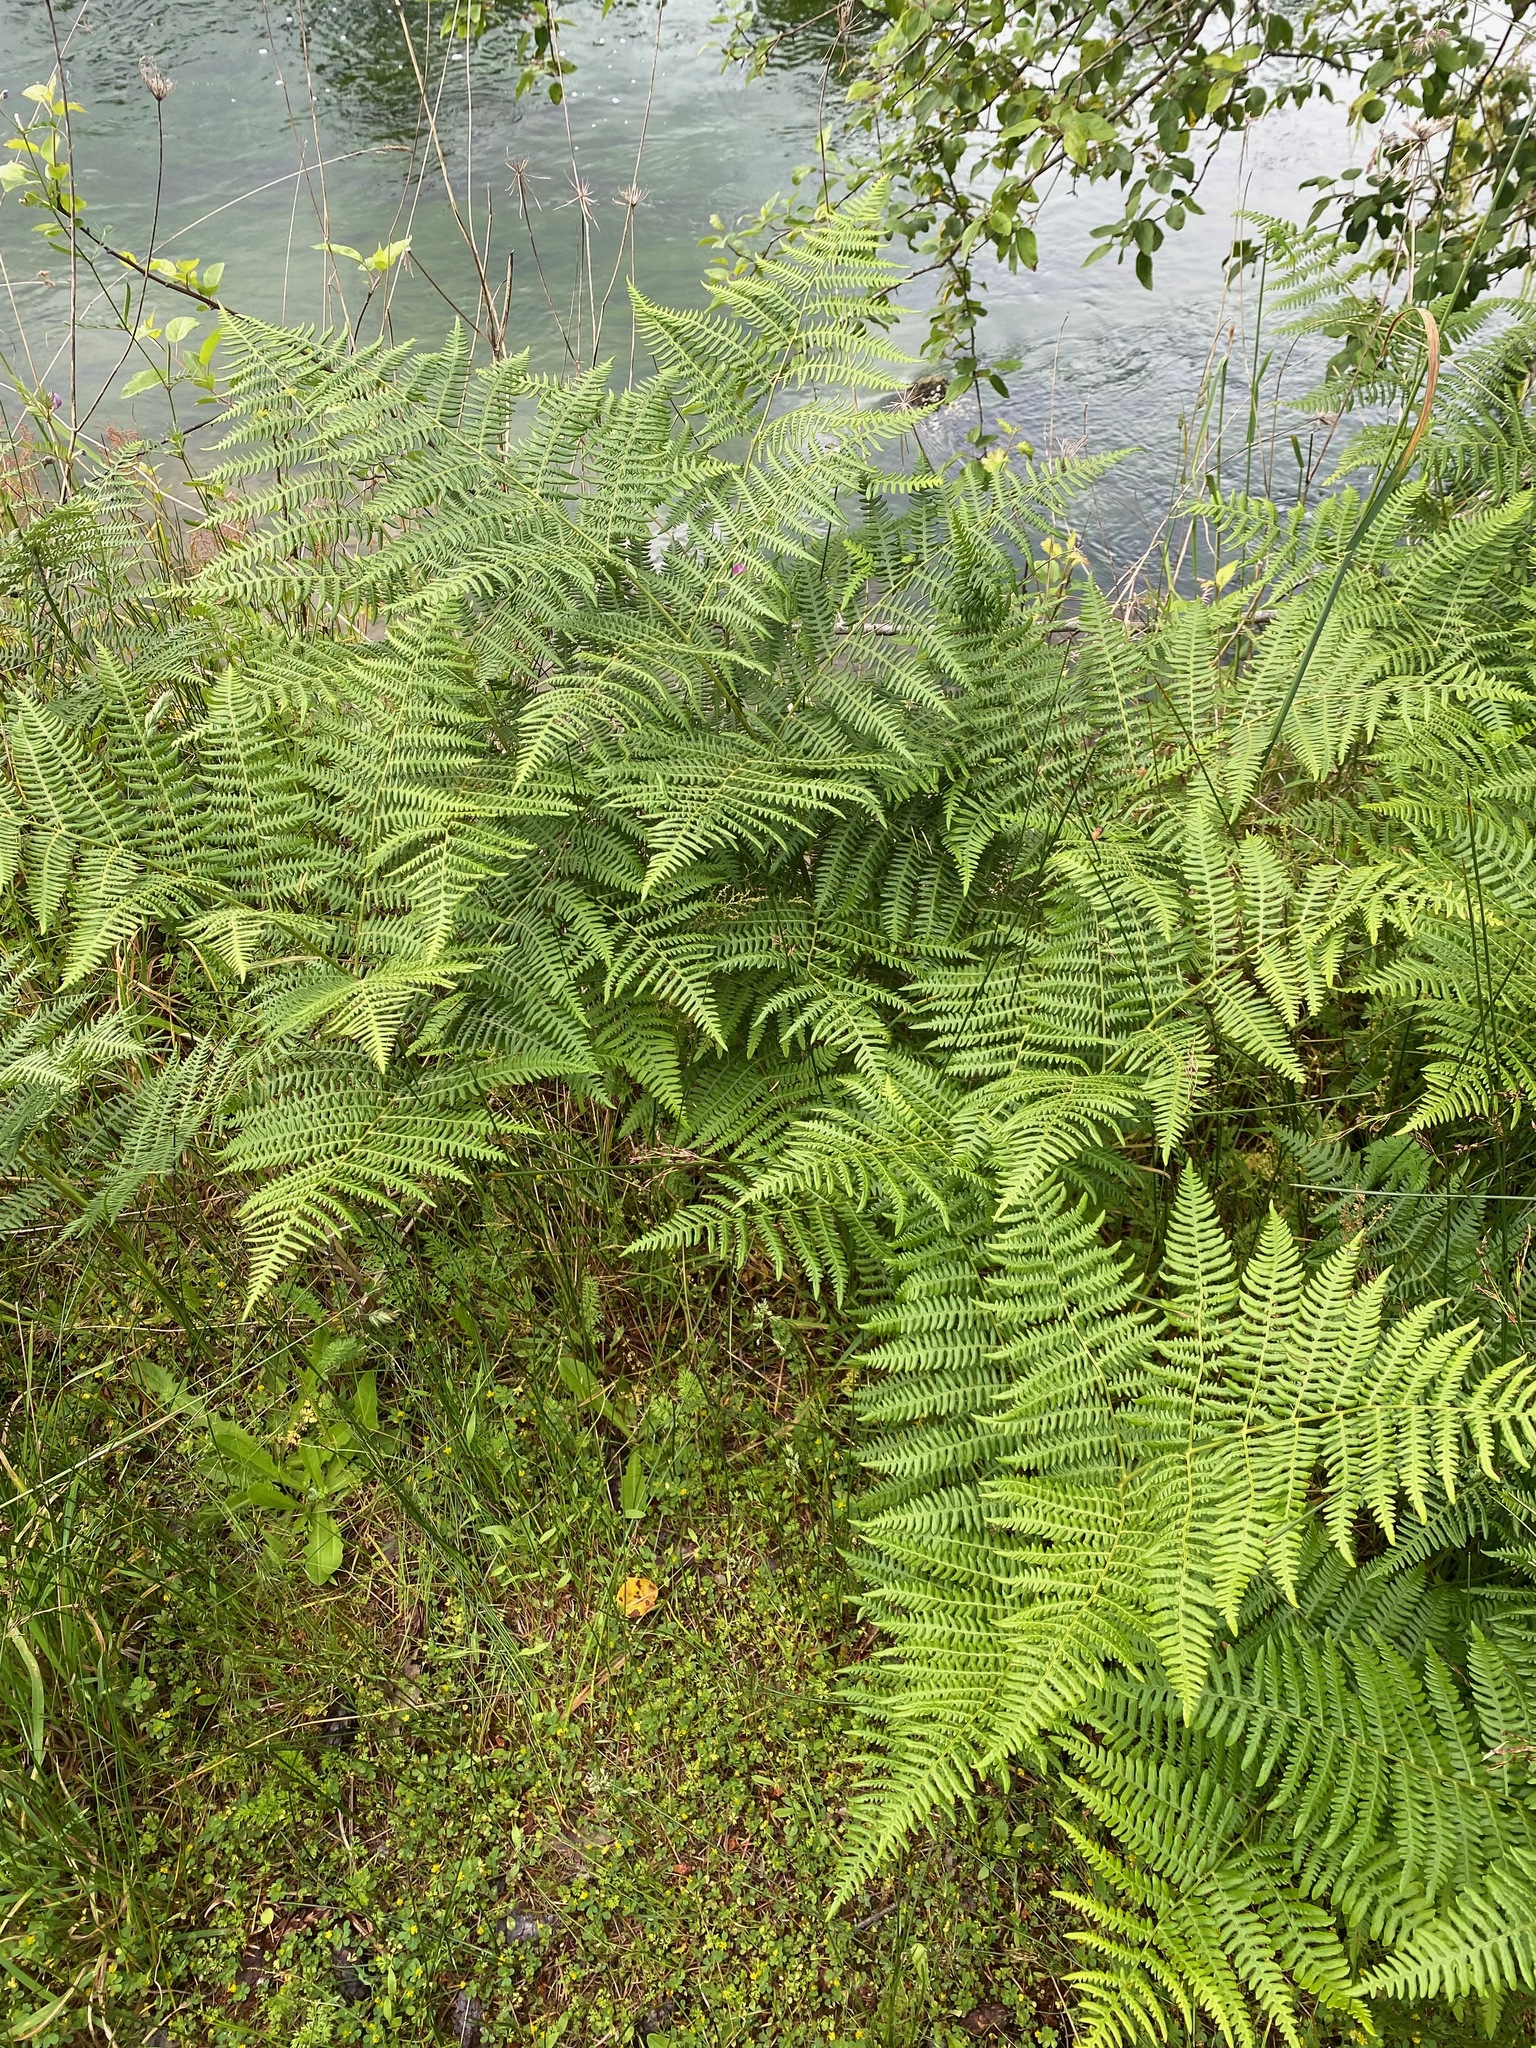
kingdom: Plantae
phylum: Tracheophyta
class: Polypodiopsida
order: Polypodiales
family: Dennstaedtiaceae
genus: Pteridium
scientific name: Pteridium aquilinum
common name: Bracken
